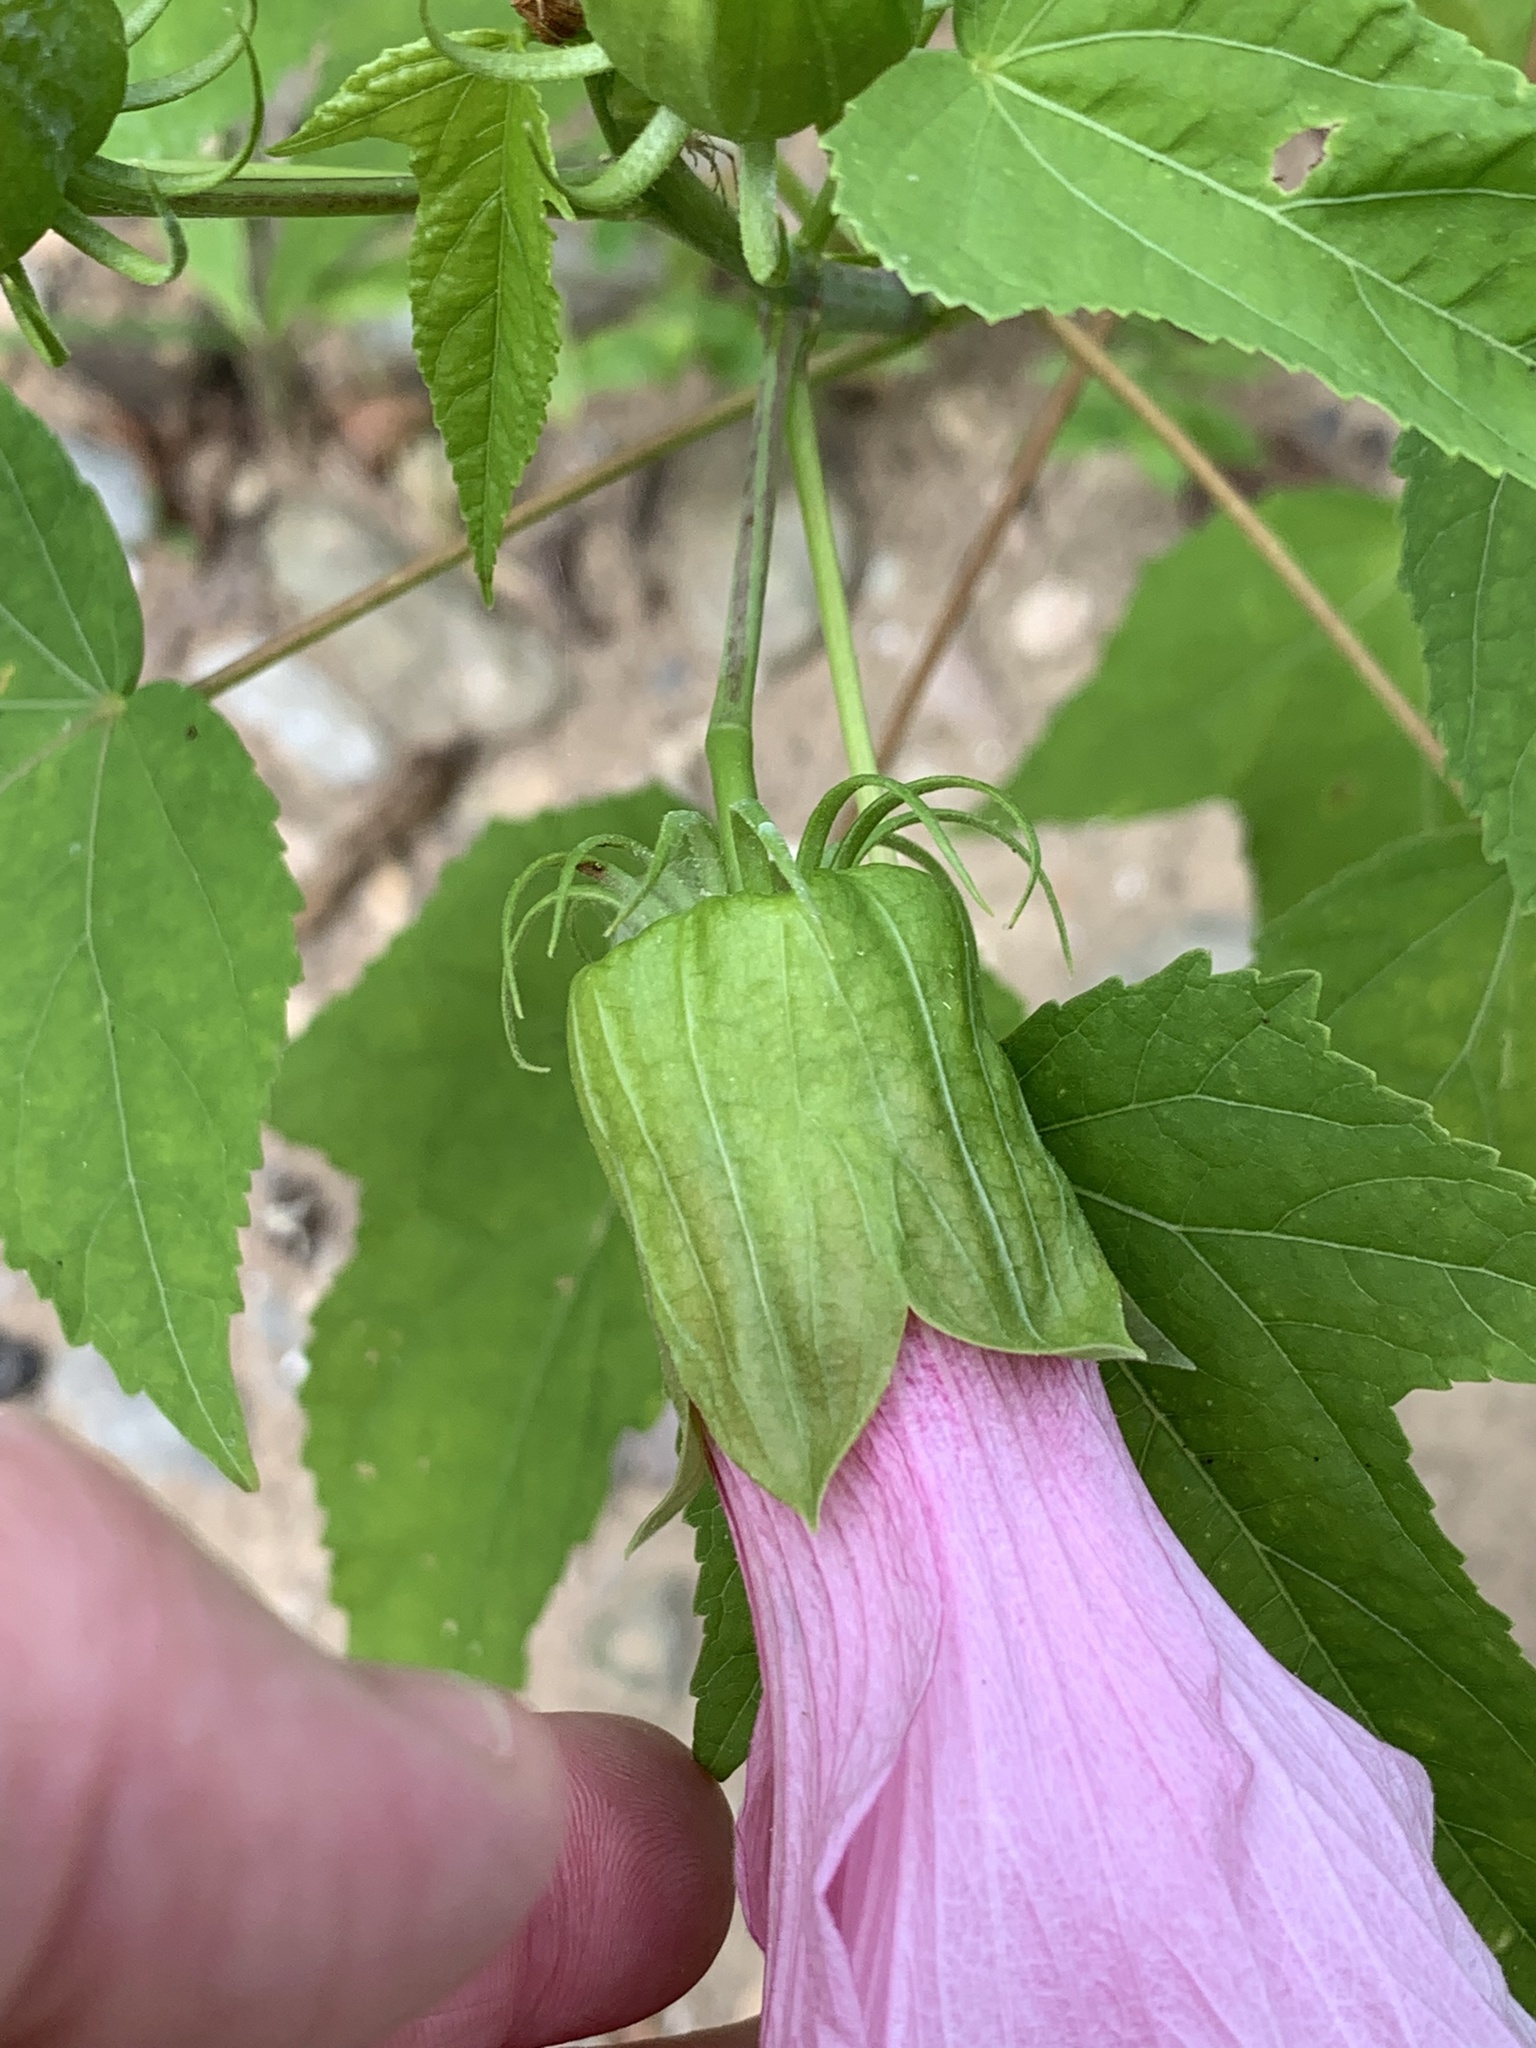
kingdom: Plantae
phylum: Tracheophyta
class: Magnoliopsida
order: Malvales
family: Malvaceae
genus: Hibiscus
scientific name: Hibiscus laevis
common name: Scarlet rose-mallow
